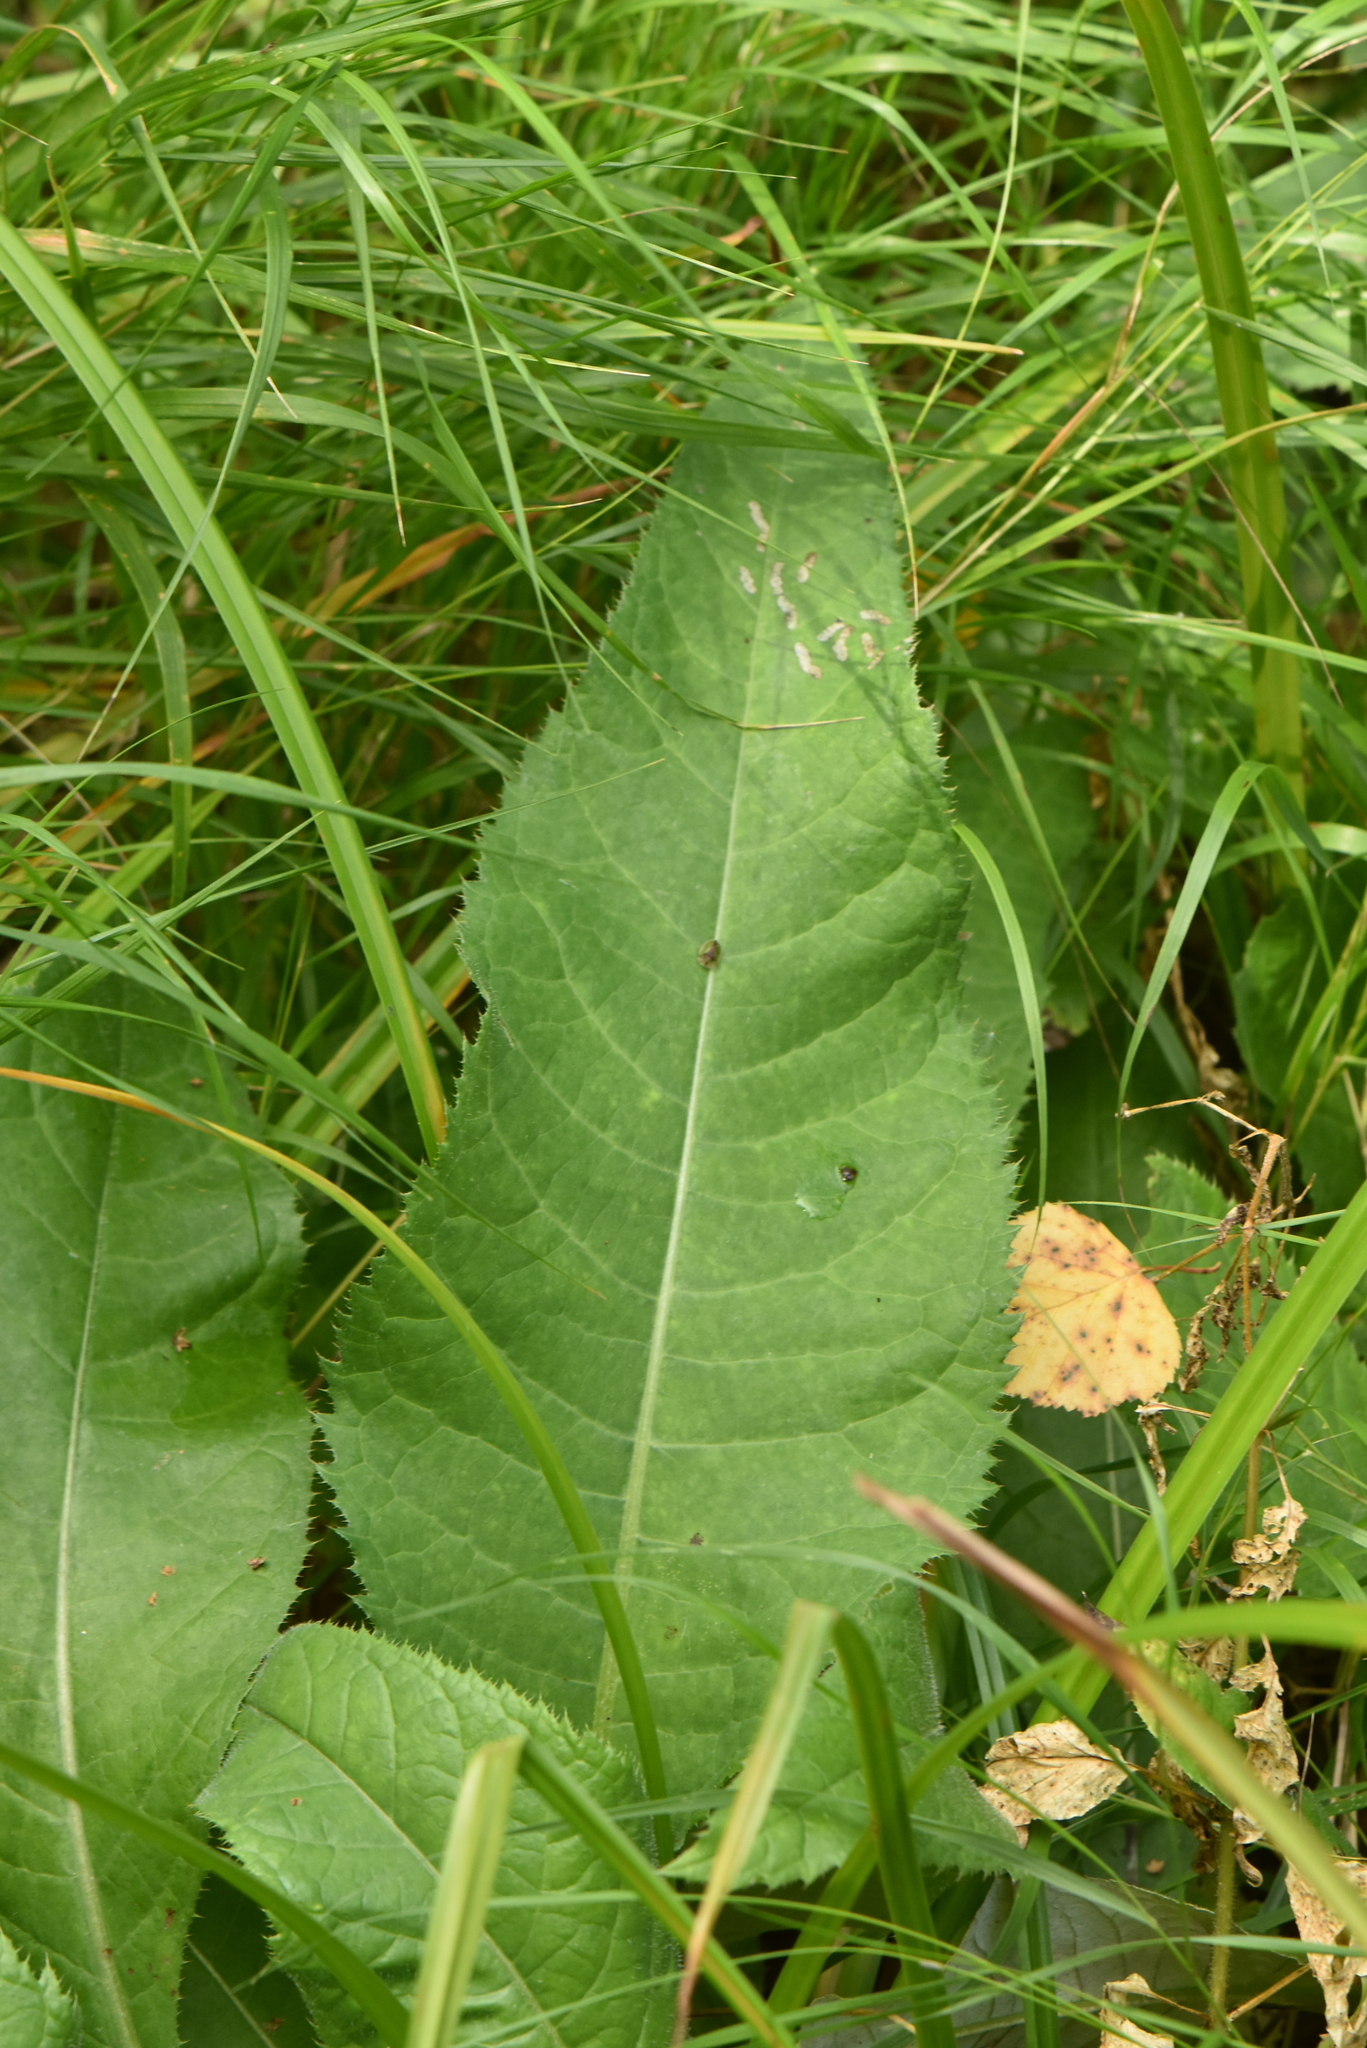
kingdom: Plantae
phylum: Tracheophyta
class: Magnoliopsida
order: Asterales
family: Asteraceae
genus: Cirsium
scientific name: Cirsium heterophyllum
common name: Melancholy thistle
